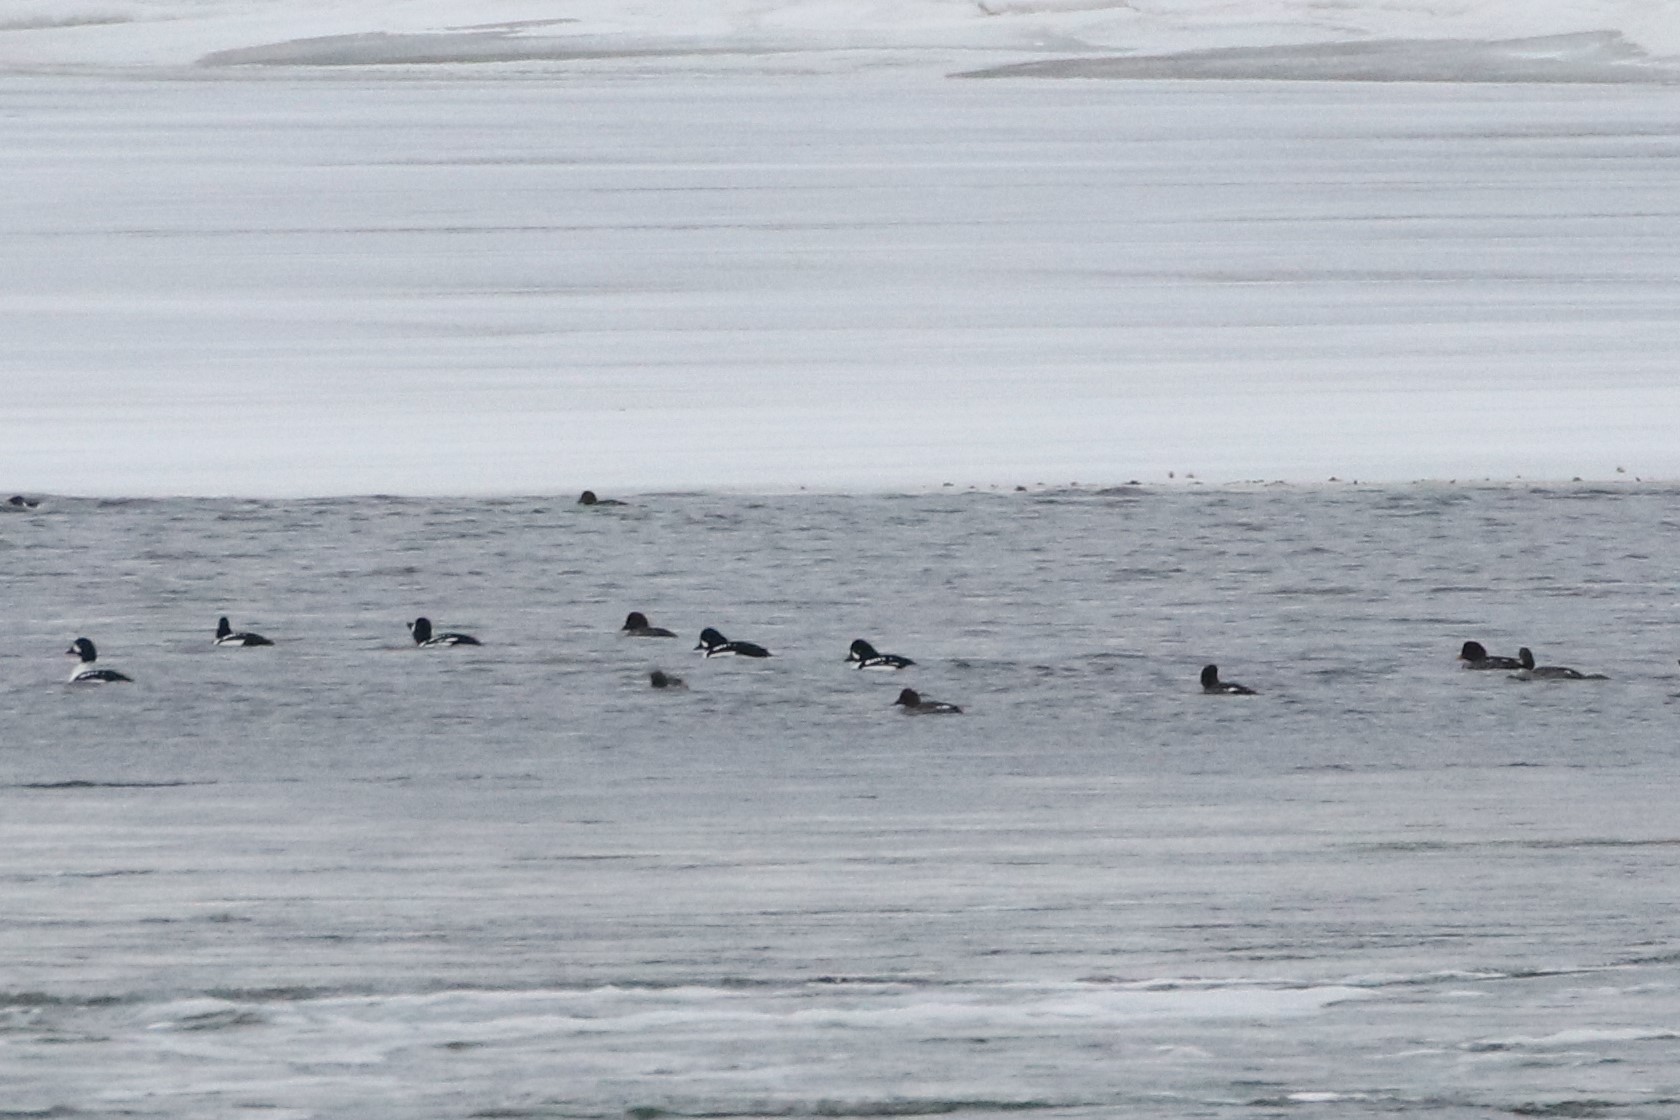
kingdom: Animalia
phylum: Chordata
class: Aves
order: Anseriformes
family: Anatidae
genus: Bucephala
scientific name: Bucephala islandica
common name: Barrow's goldeneye
